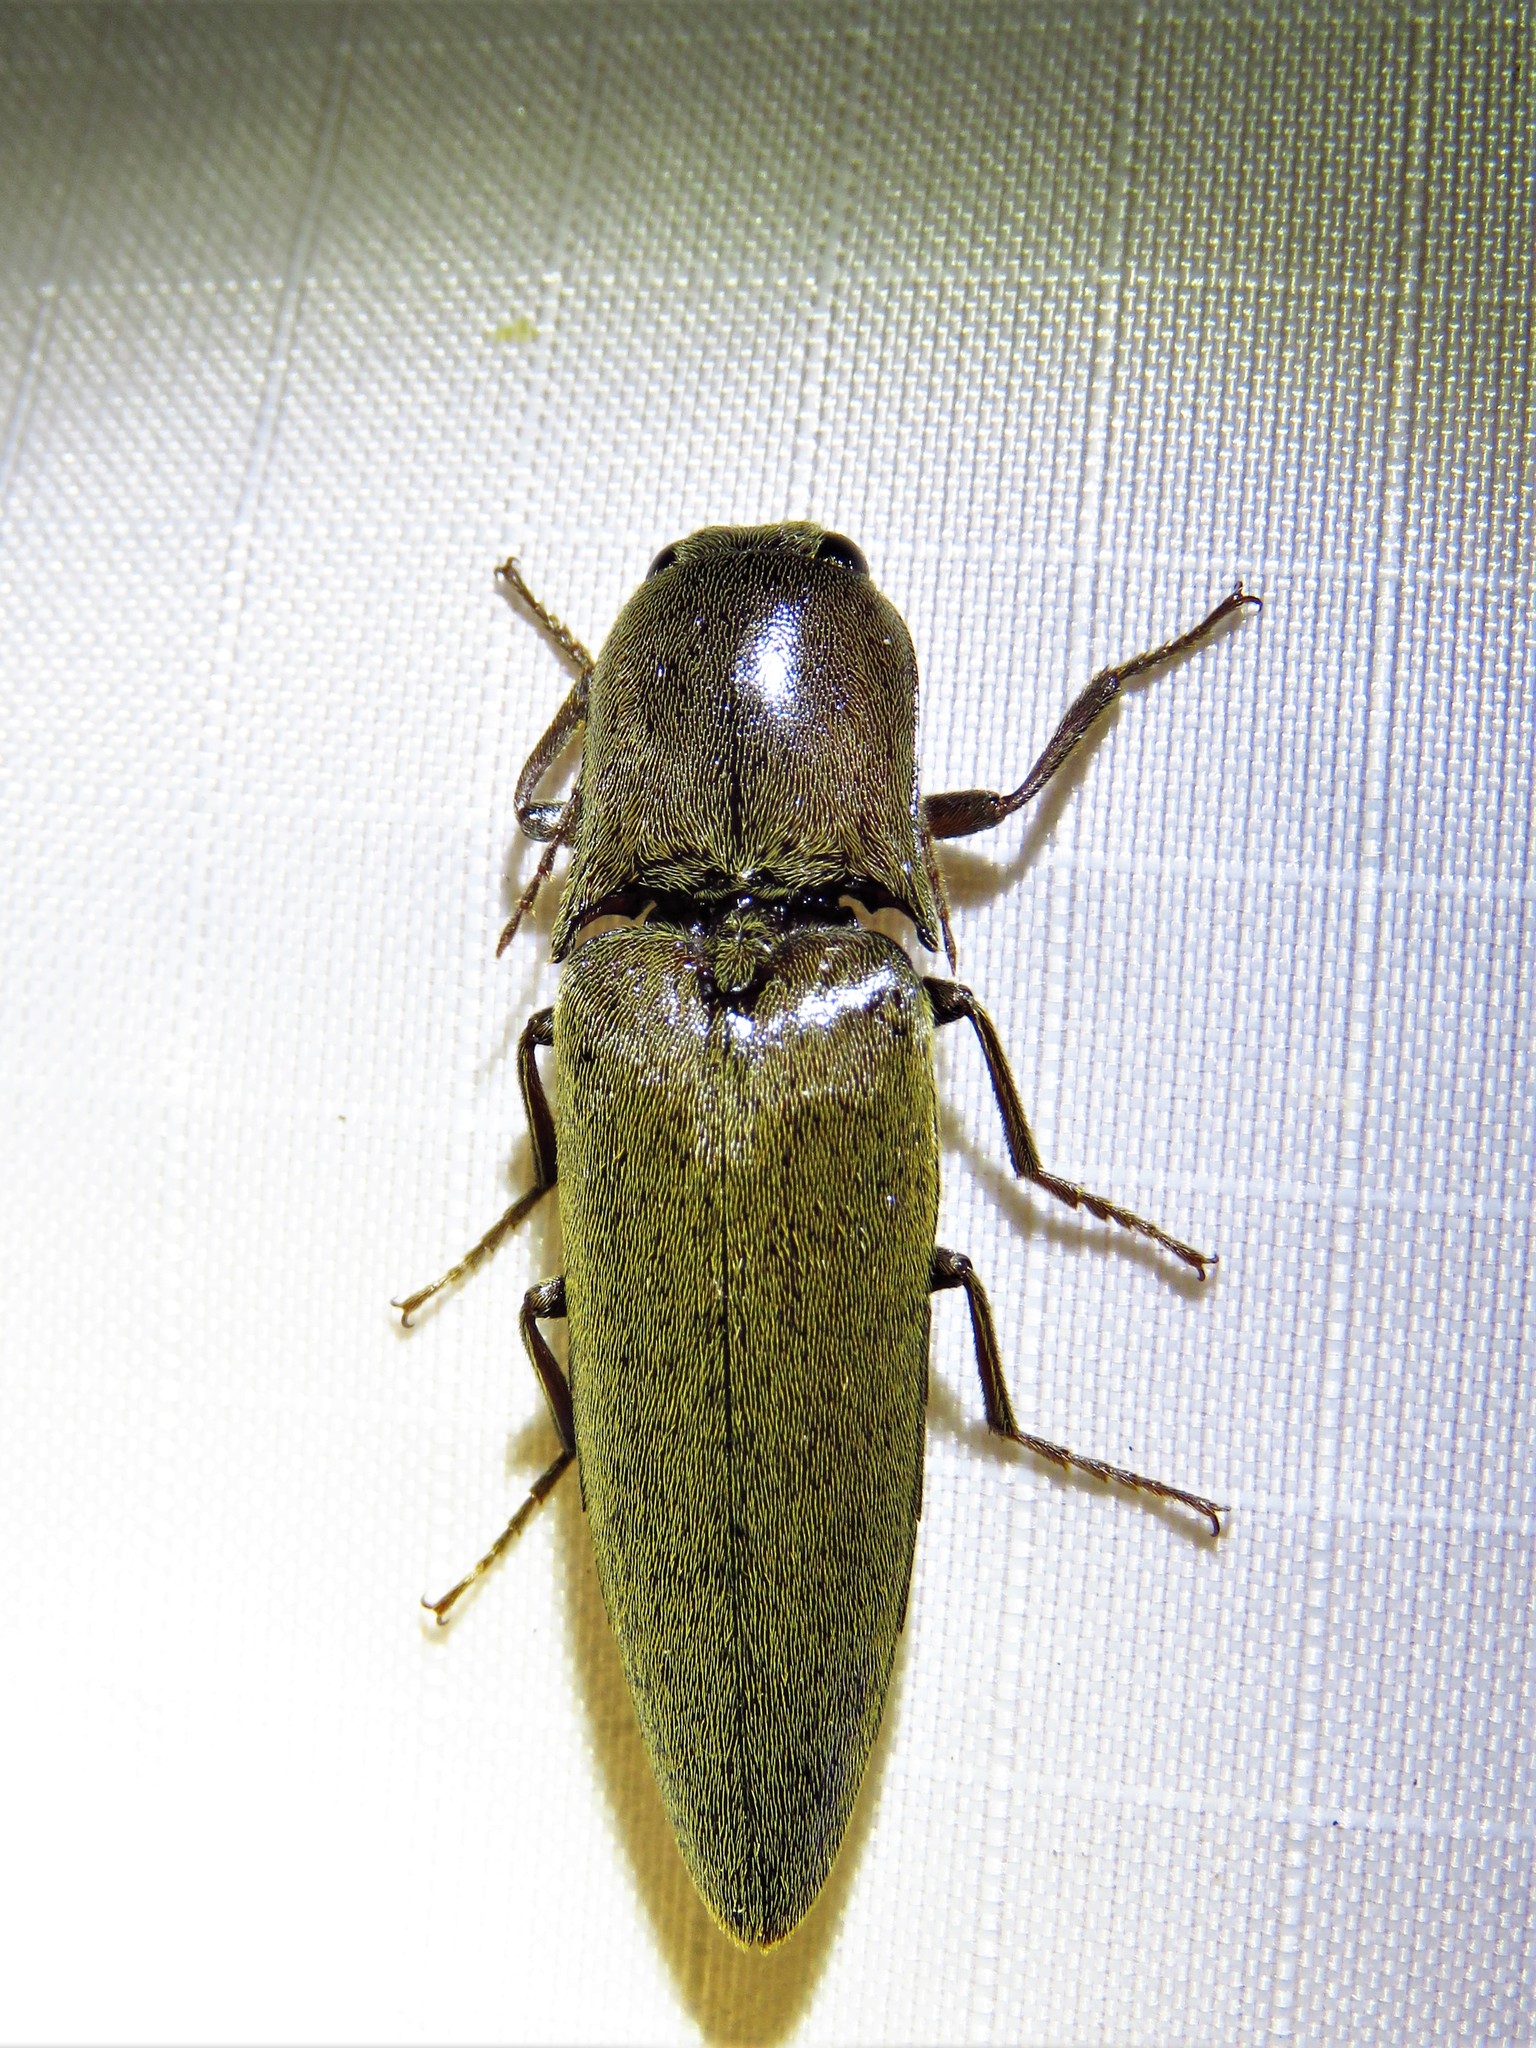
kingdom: Animalia
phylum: Arthropoda
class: Insecta
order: Coleoptera
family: Elateridae
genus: Orthostethus
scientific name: Orthostethus infuscatus
